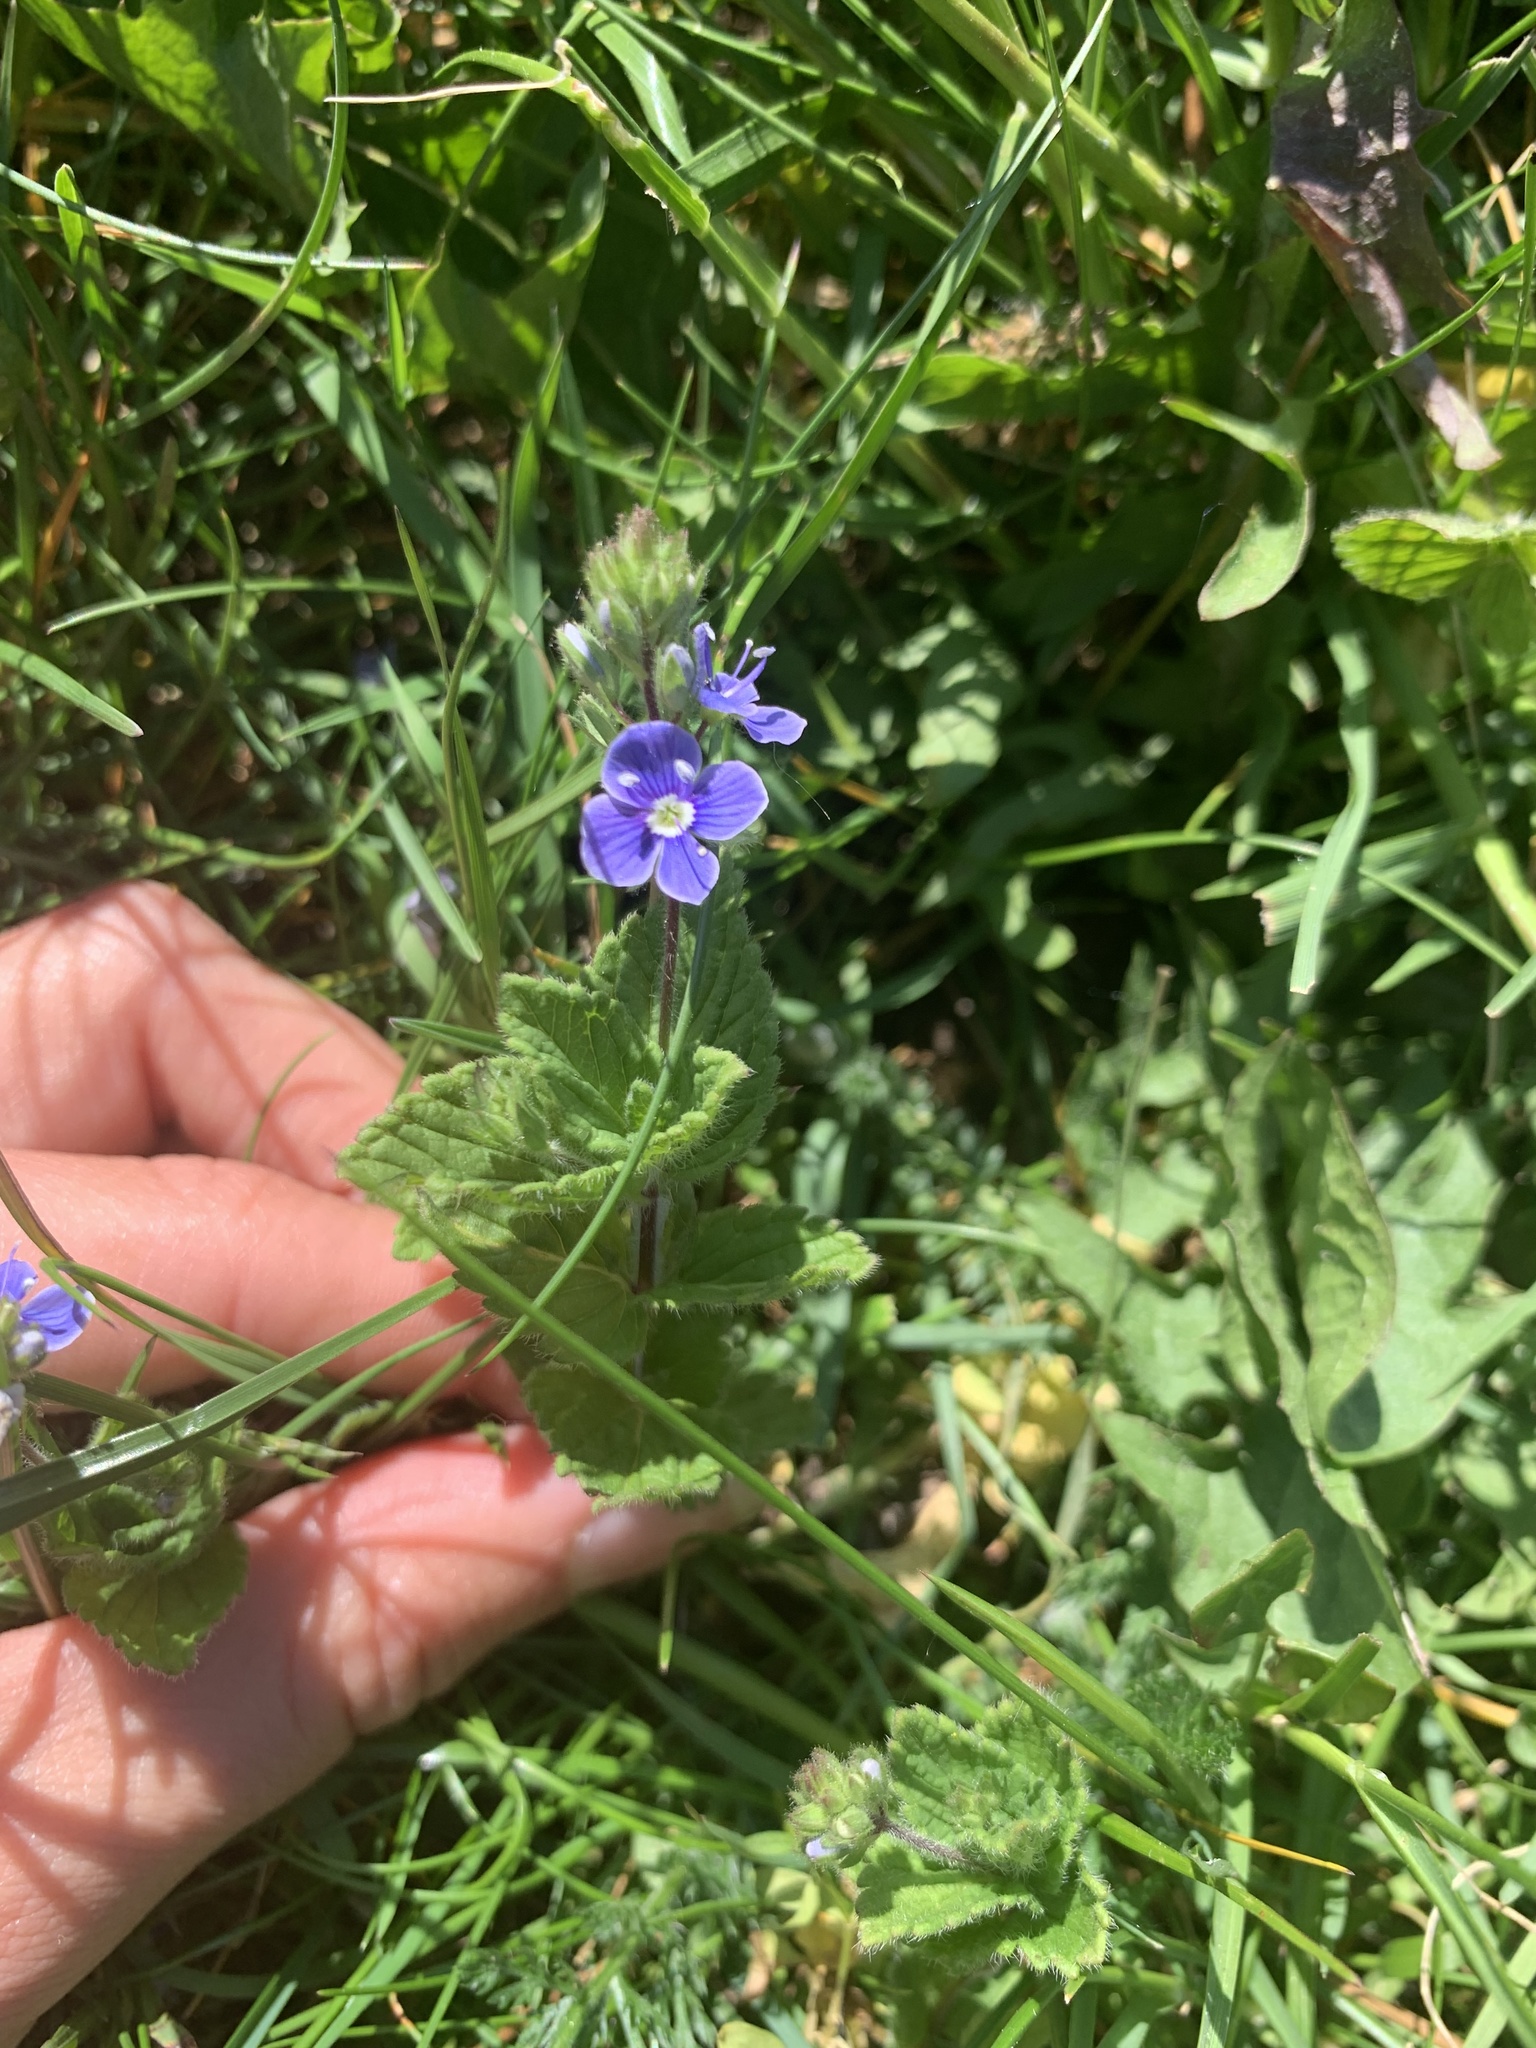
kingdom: Plantae
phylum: Tracheophyta
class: Magnoliopsida
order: Lamiales
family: Plantaginaceae
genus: Veronica
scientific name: Veronica chamaedrys
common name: Germander speedwell
